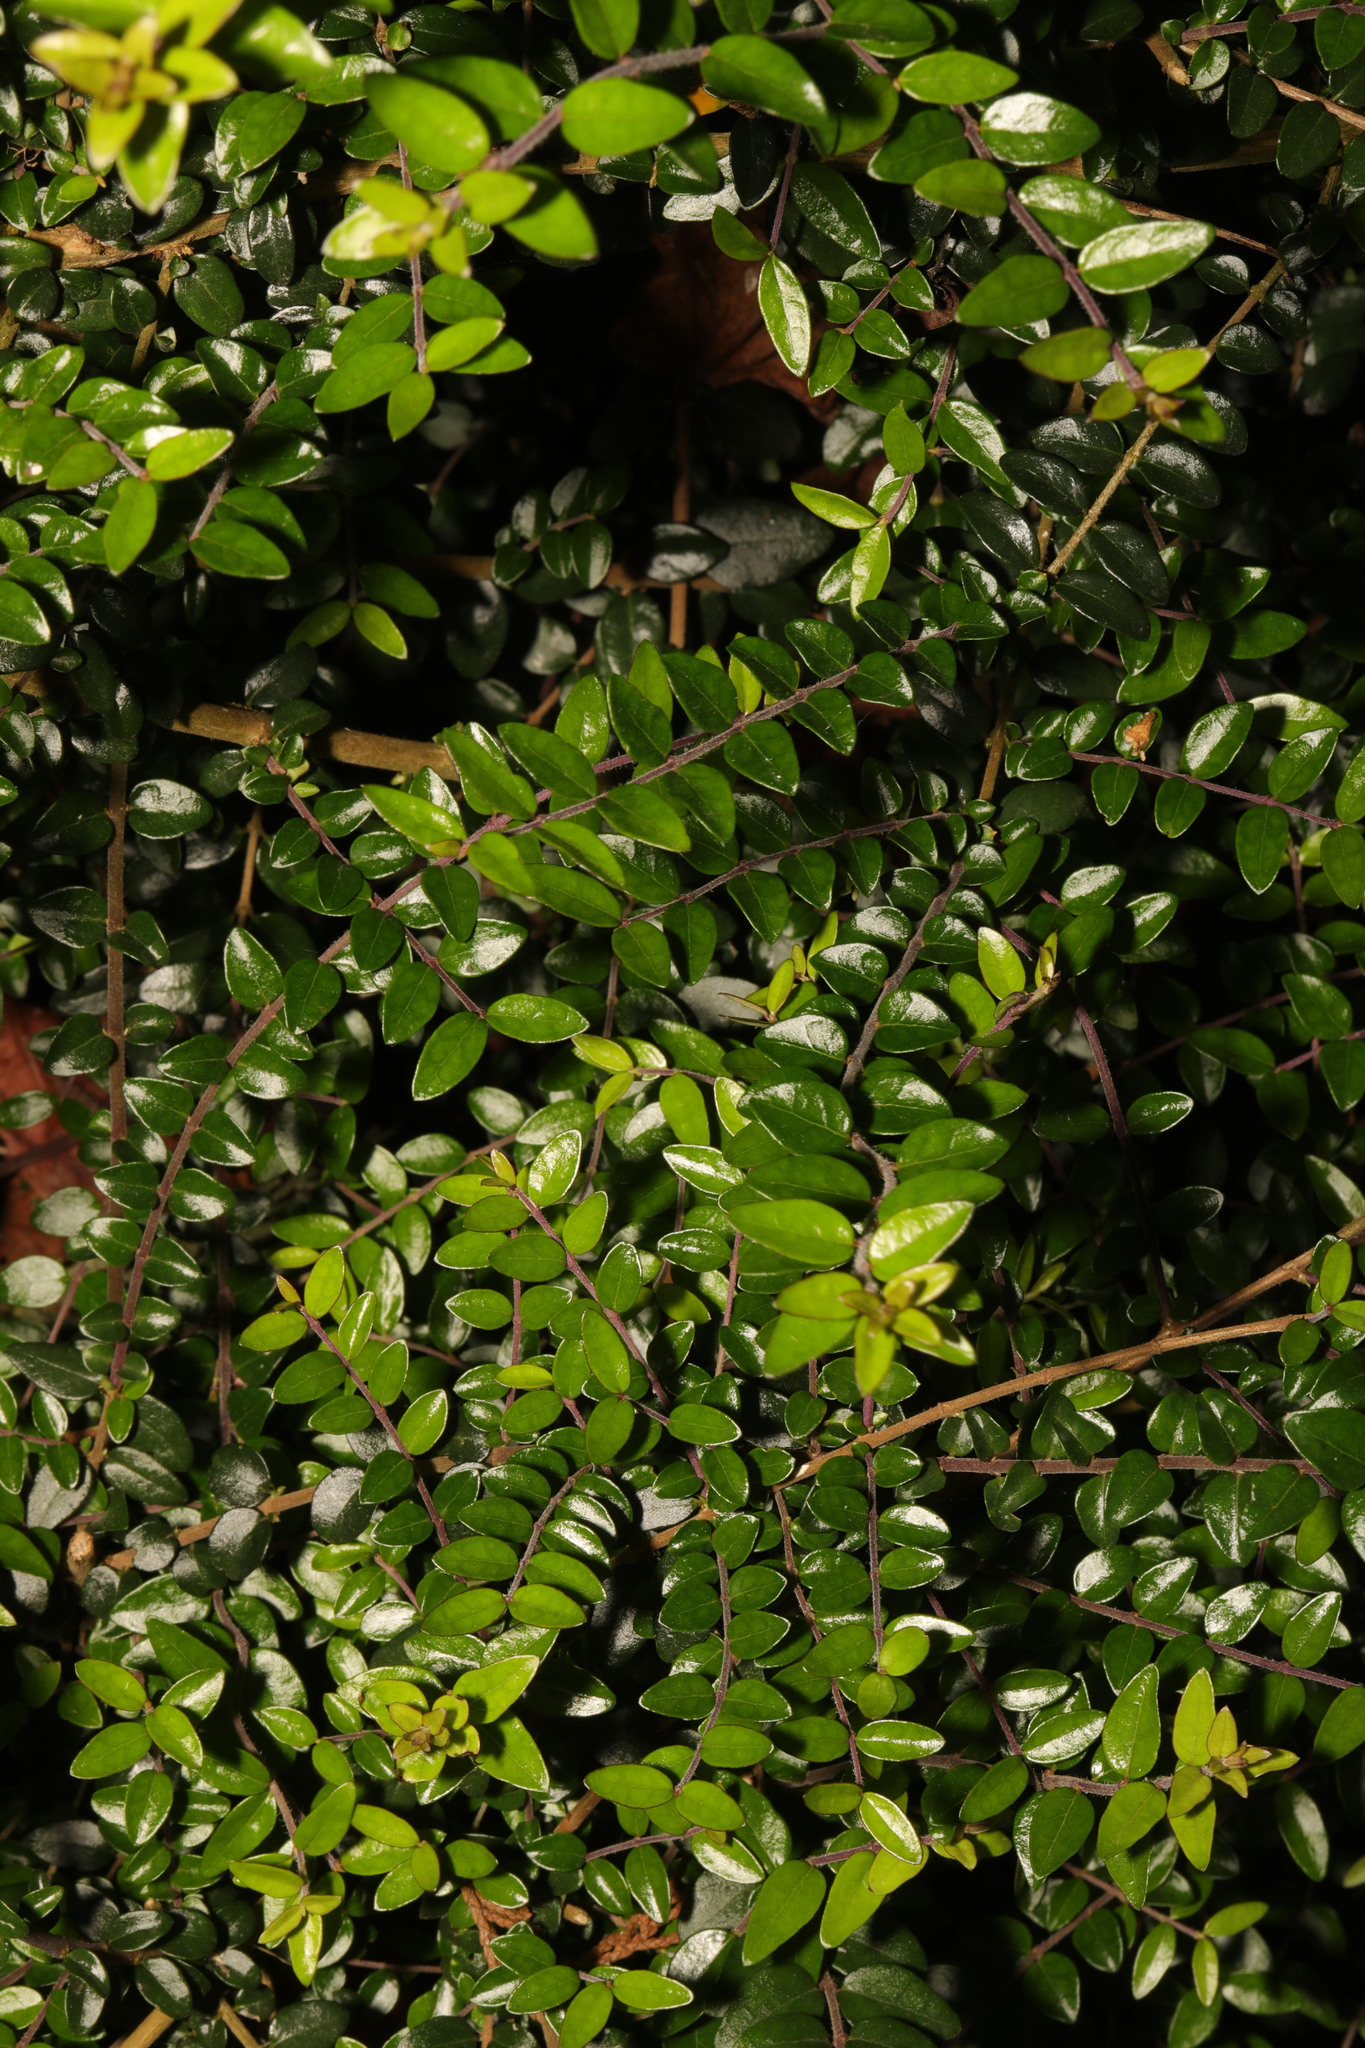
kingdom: Plantae
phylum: Tracheophyta
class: Magnoliopsida
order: Dipsacales
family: Caprifoliaceae
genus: Lonicera
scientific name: Lonicera pileata
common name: Box-leaved honeysuckle
